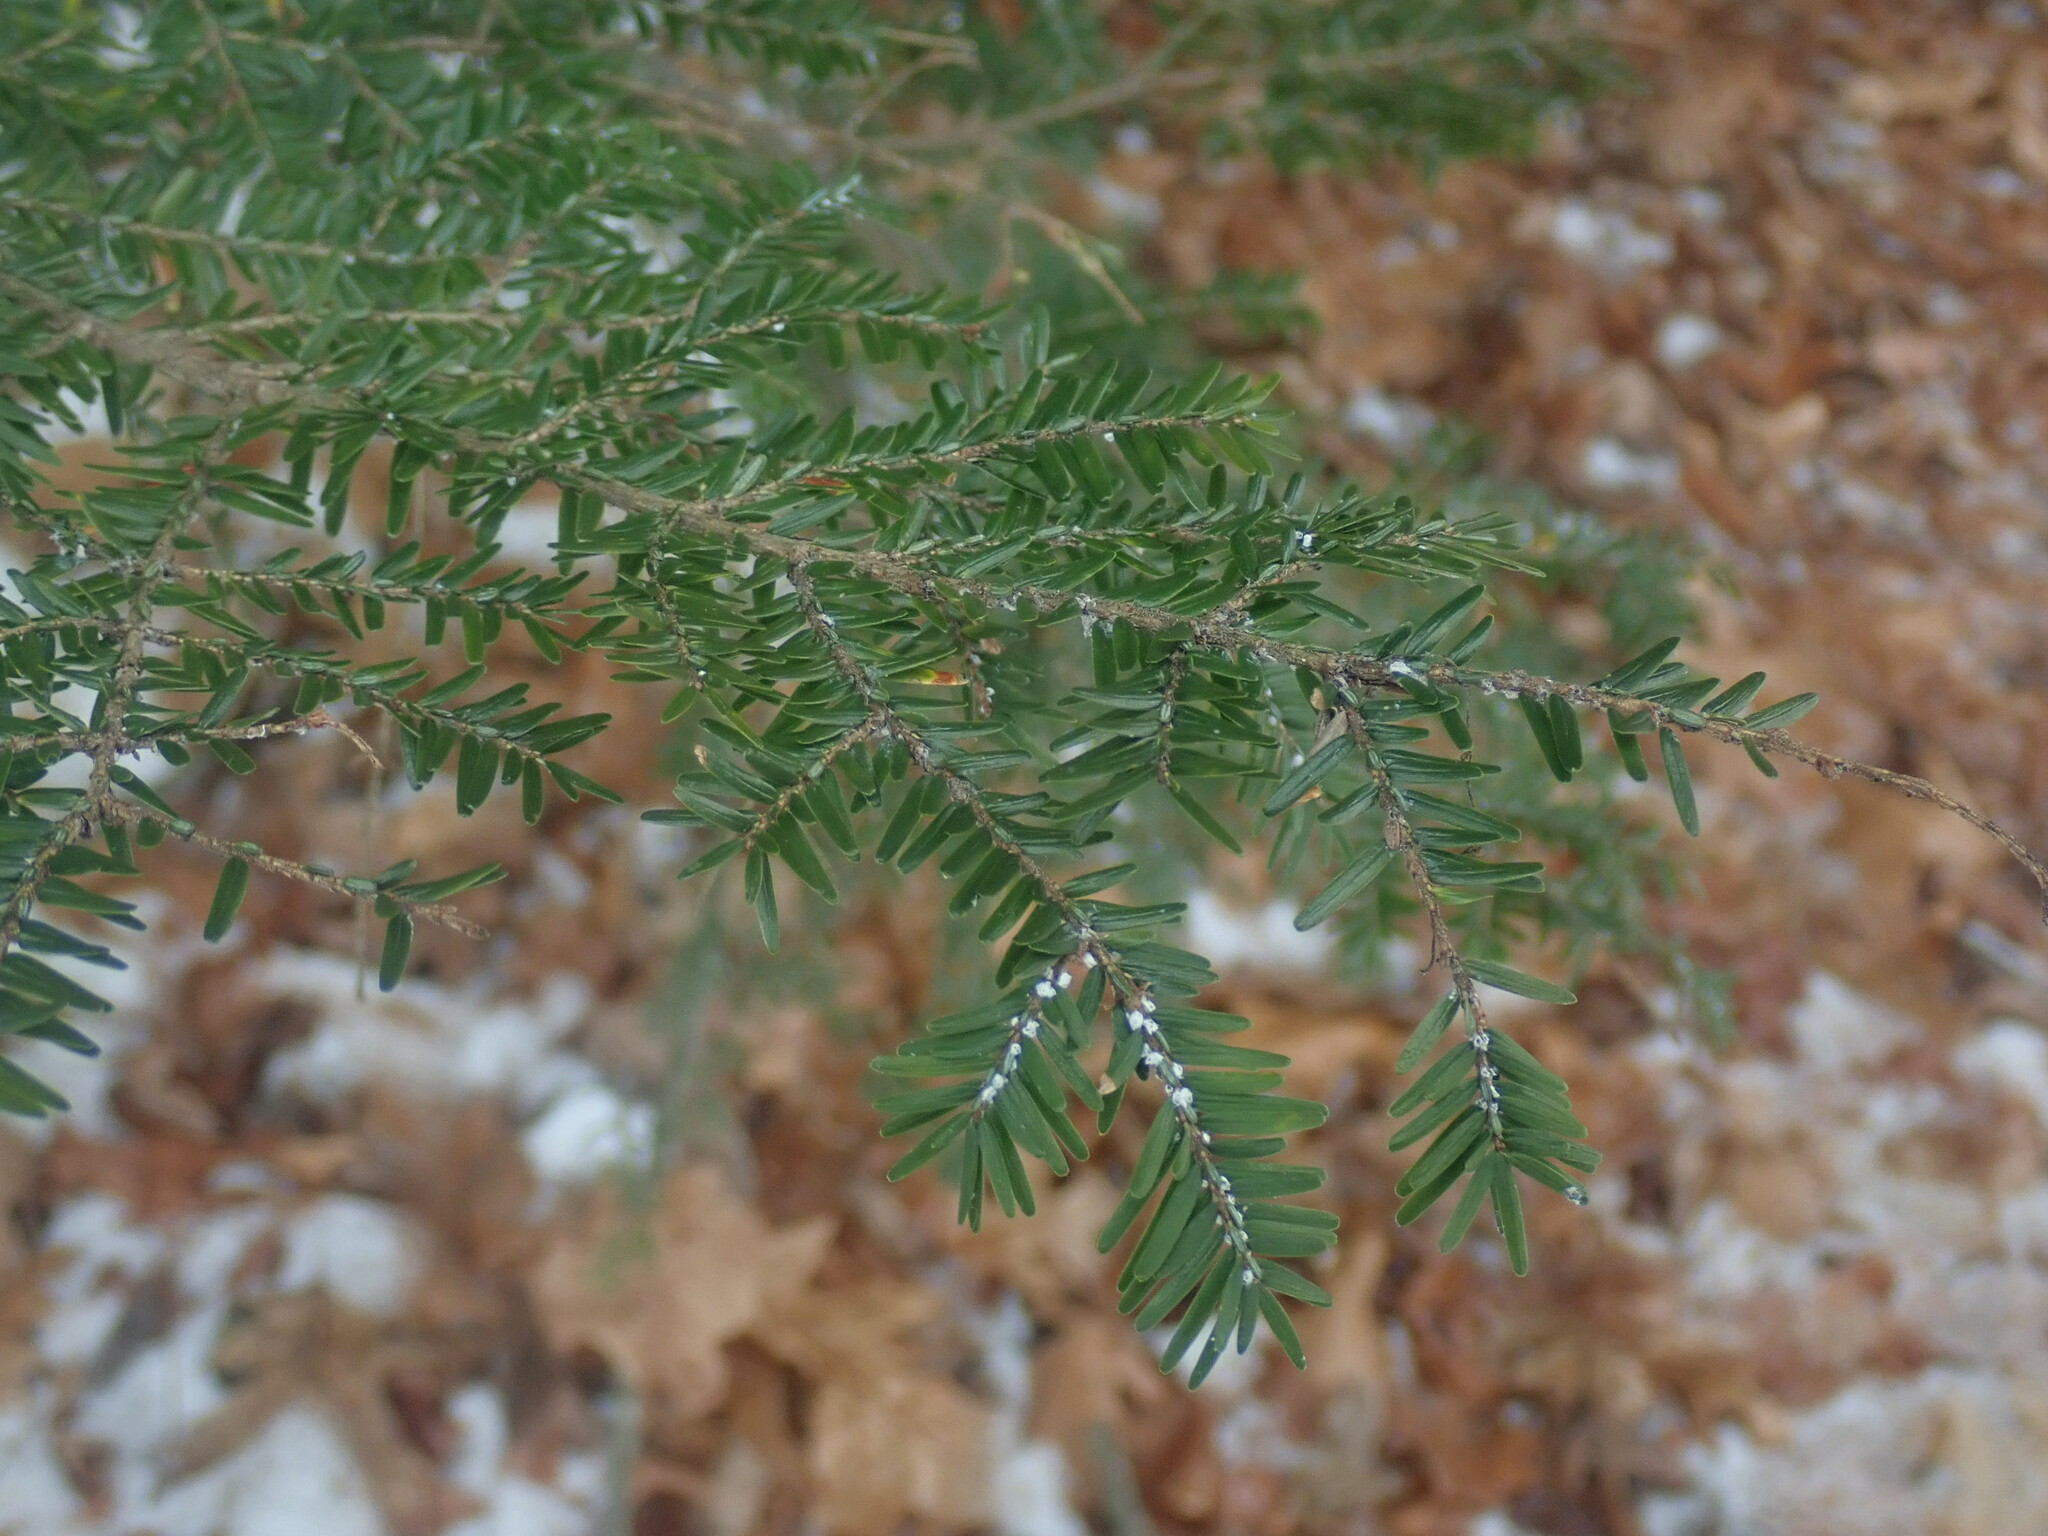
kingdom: Plantae
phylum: Tracheophyta
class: Pinopsida
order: Pinales
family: Pinaceae
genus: Tsuga
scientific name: Tsuga canadensis
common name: Eastern hemlock
